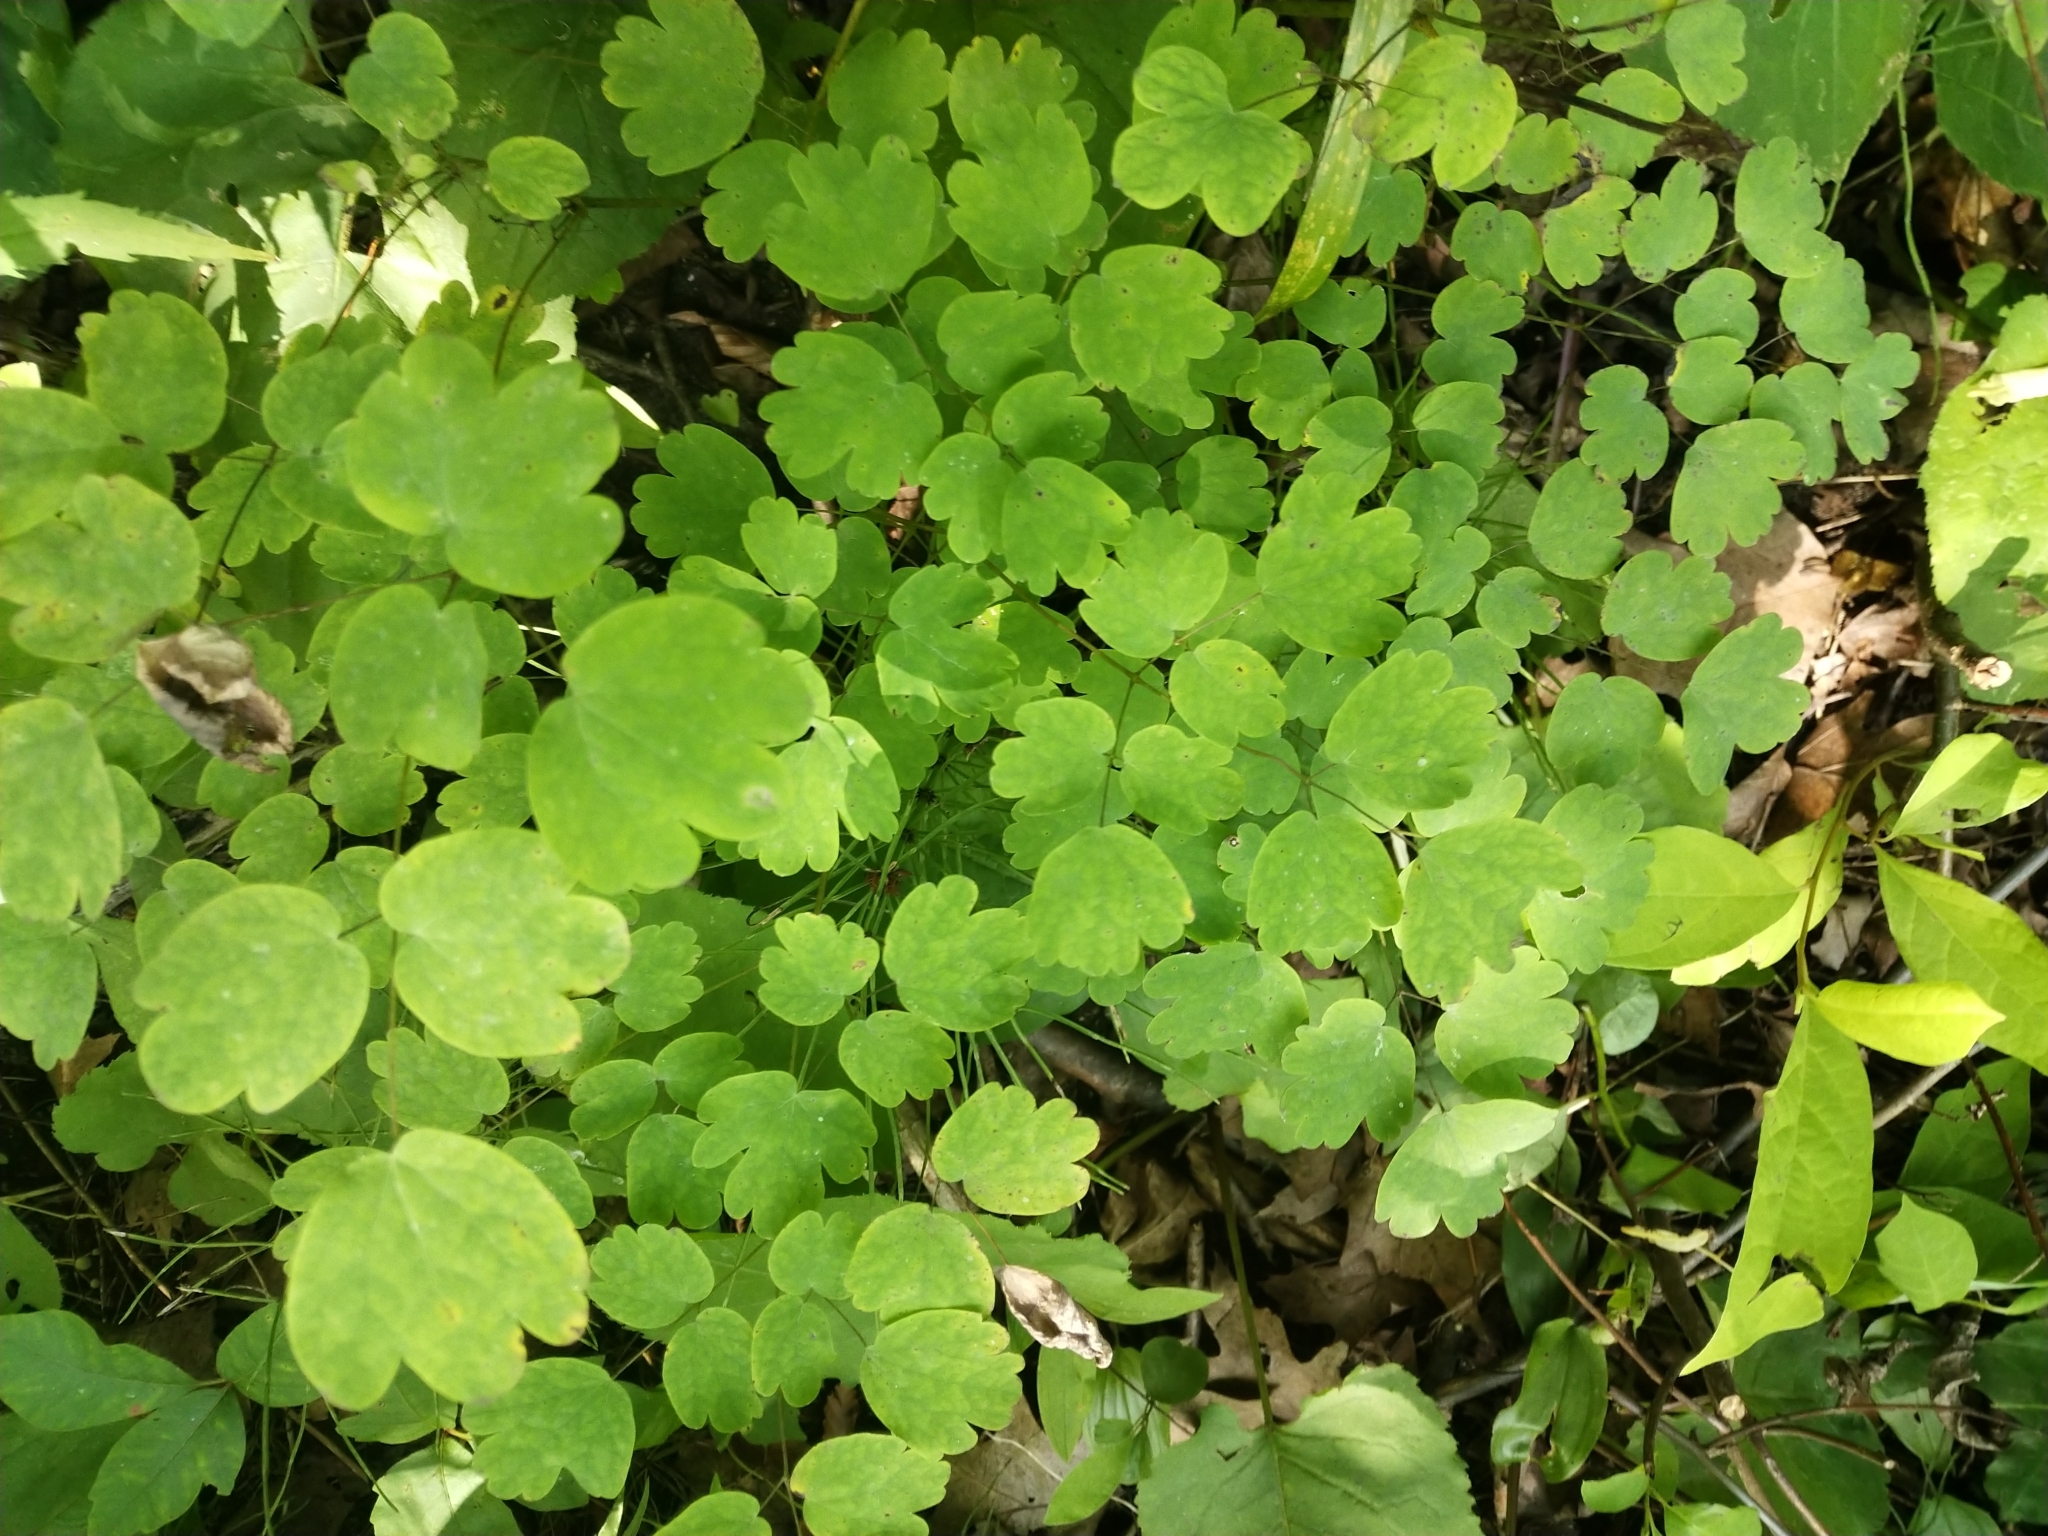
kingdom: Plantae
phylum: Tracheophyta
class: Magnoliopsida
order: Ranunculales
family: Ranunculaceae
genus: Thalictrum
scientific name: Thalictrum dioicum
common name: Early meadow-rue
